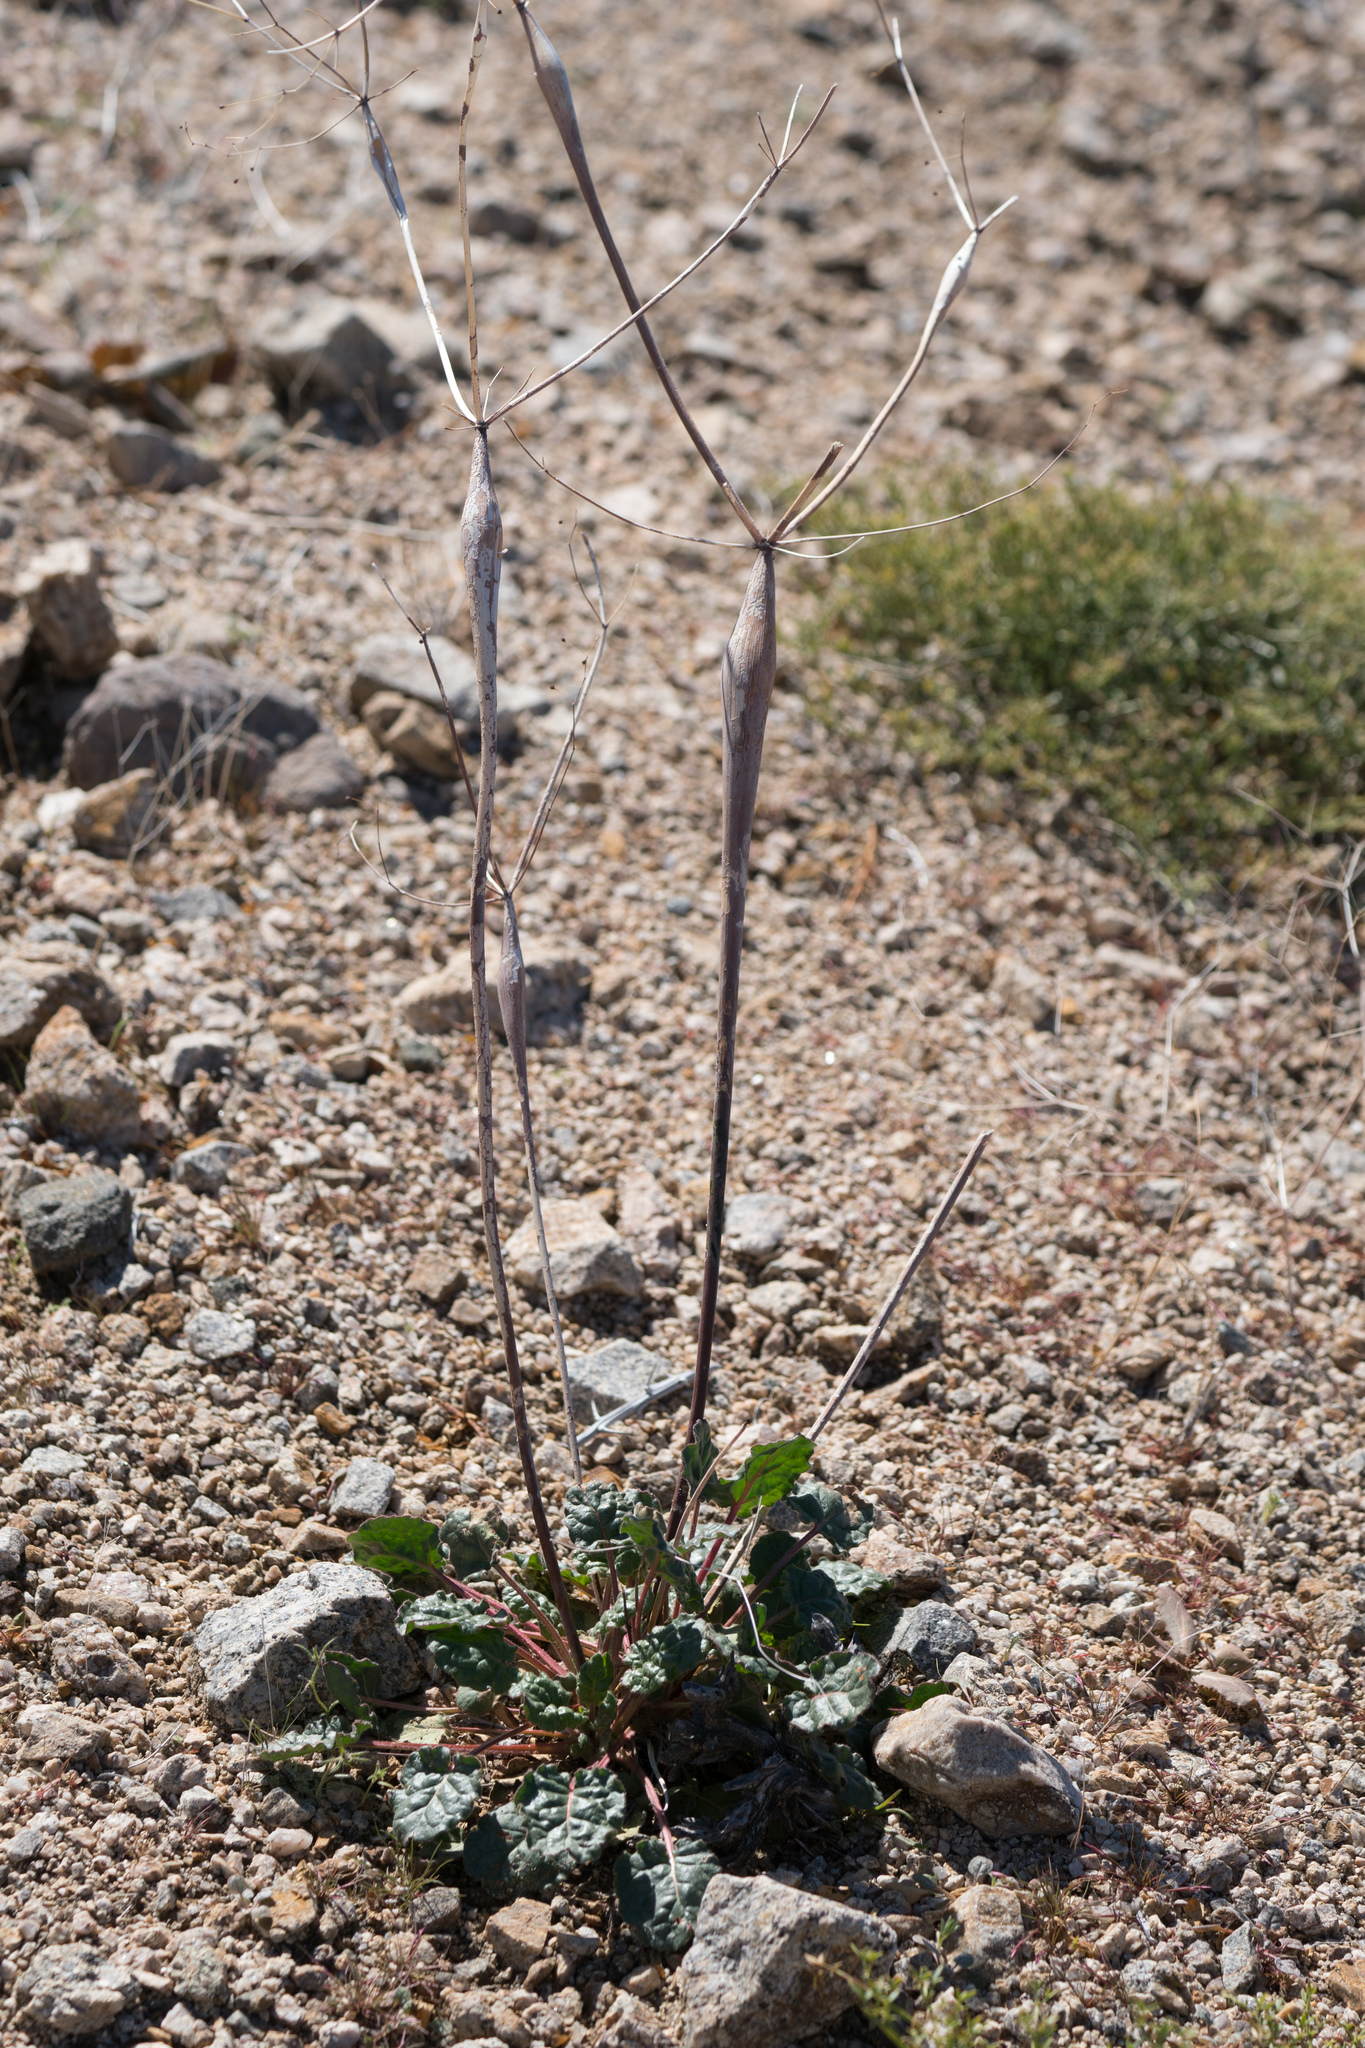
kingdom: Plantae
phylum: Tracheophyta
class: Magnoliopsida
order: Caryophyllales
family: Polygonaceae
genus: Eriogonum
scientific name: Eriogonum inflatum
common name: Desert trumpet
